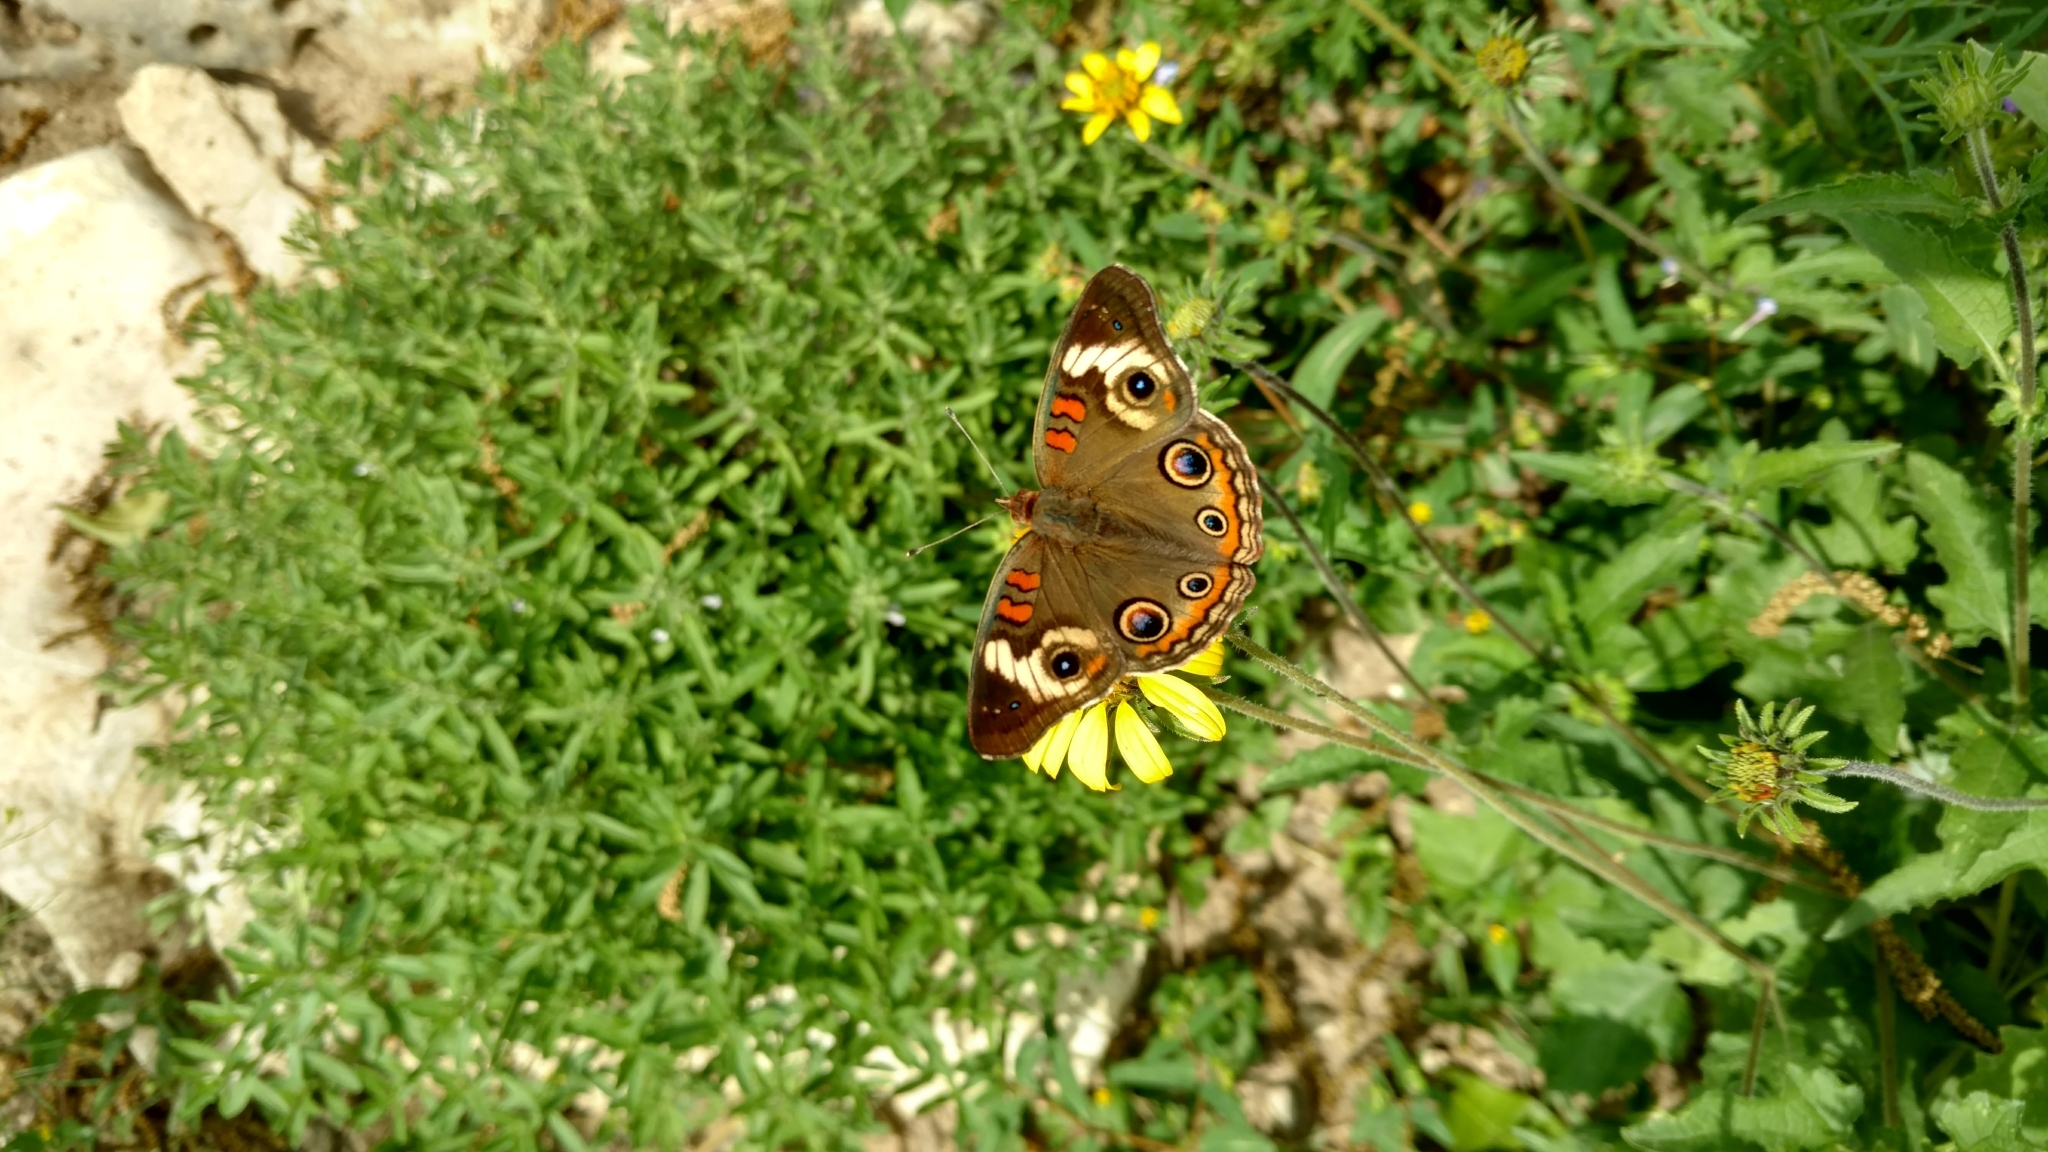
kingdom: Animalia
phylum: Arthropoda
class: Insecta
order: Lepidoptera
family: Nymphalidae
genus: Junonia
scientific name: Junonia coenia
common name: Common buckeye
